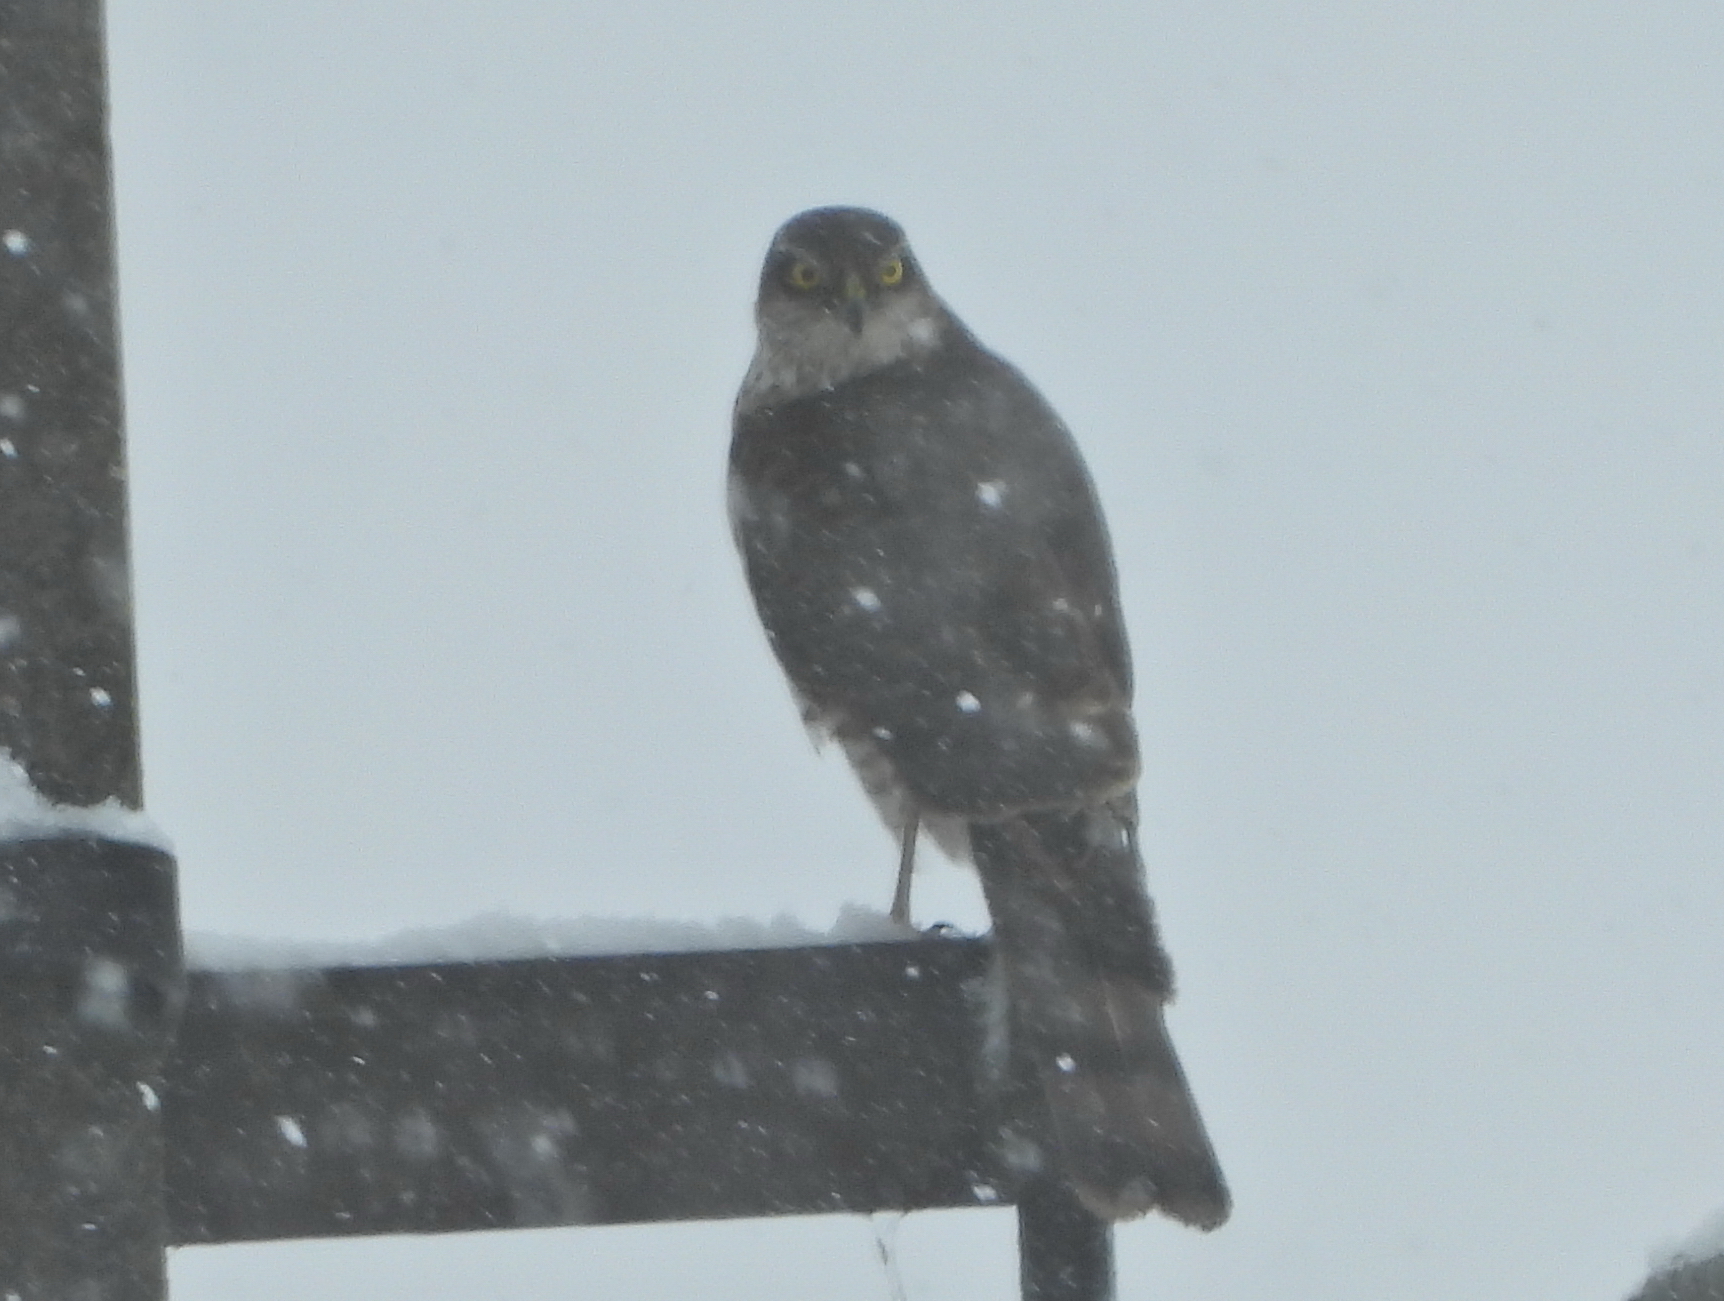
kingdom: Animalia
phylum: Chordata
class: Aves
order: Accipitriformes
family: Accipitridae
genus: Accipiter
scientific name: Accipiter nisus
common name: Eurasian sparrowhawk
